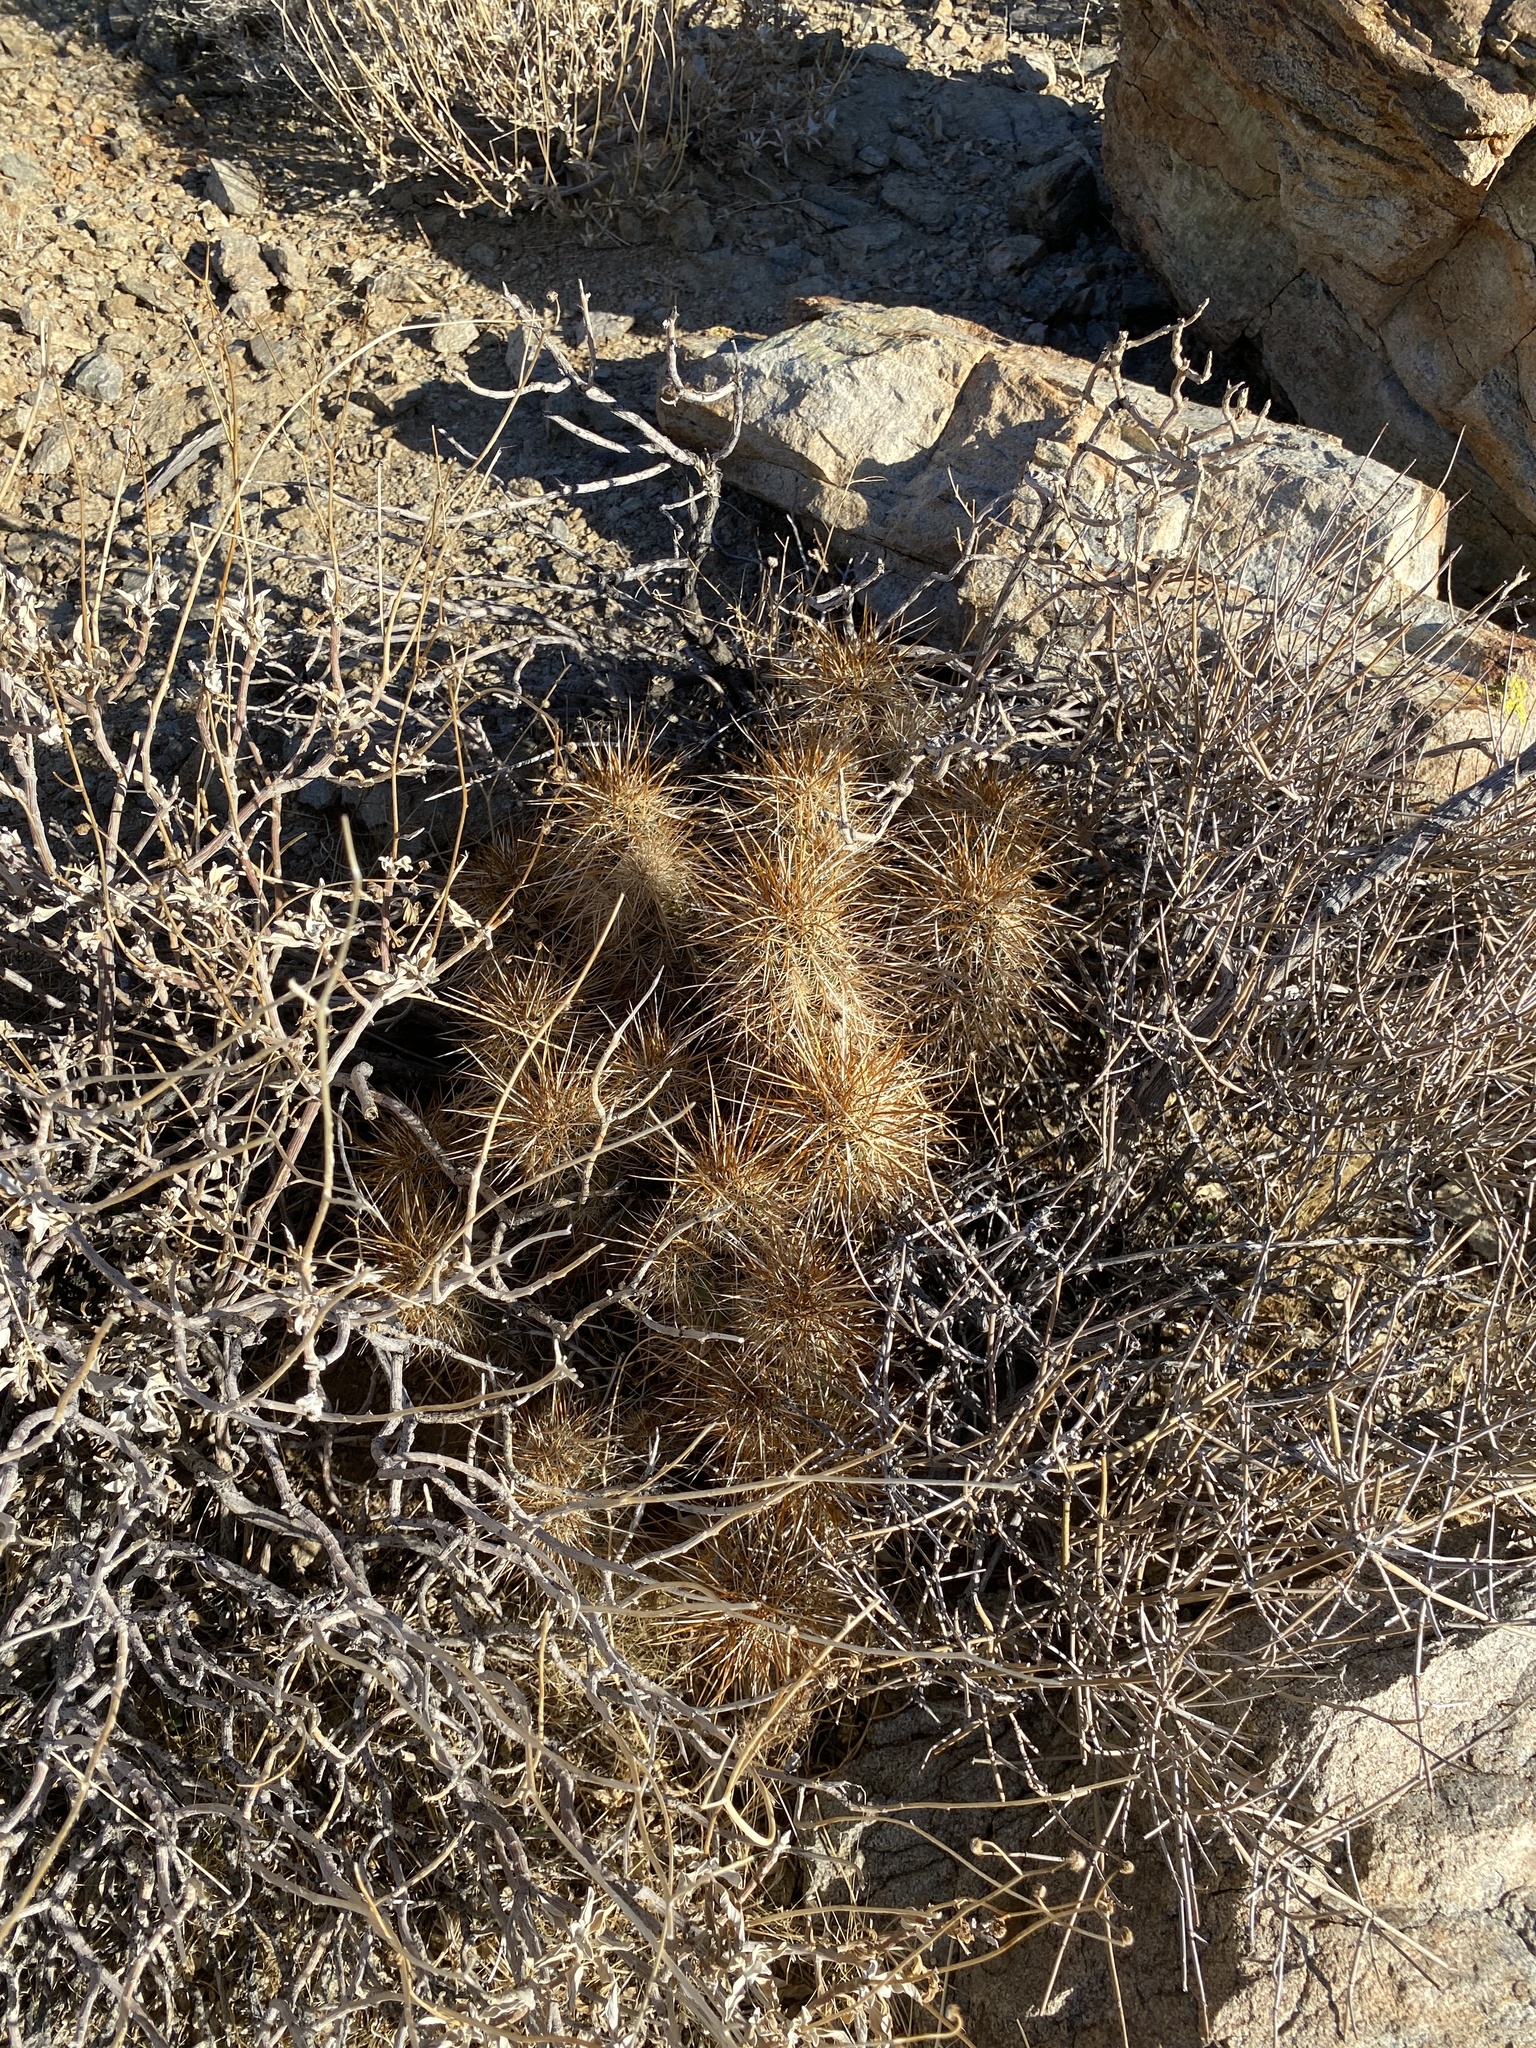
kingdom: Plantae
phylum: Tracheophyta
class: Magnoliopsida
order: Caryophyllales
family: Cactaceae
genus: Echinocereus
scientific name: Echinocereus engelmannii
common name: Engelmann's hedgehog cactus
